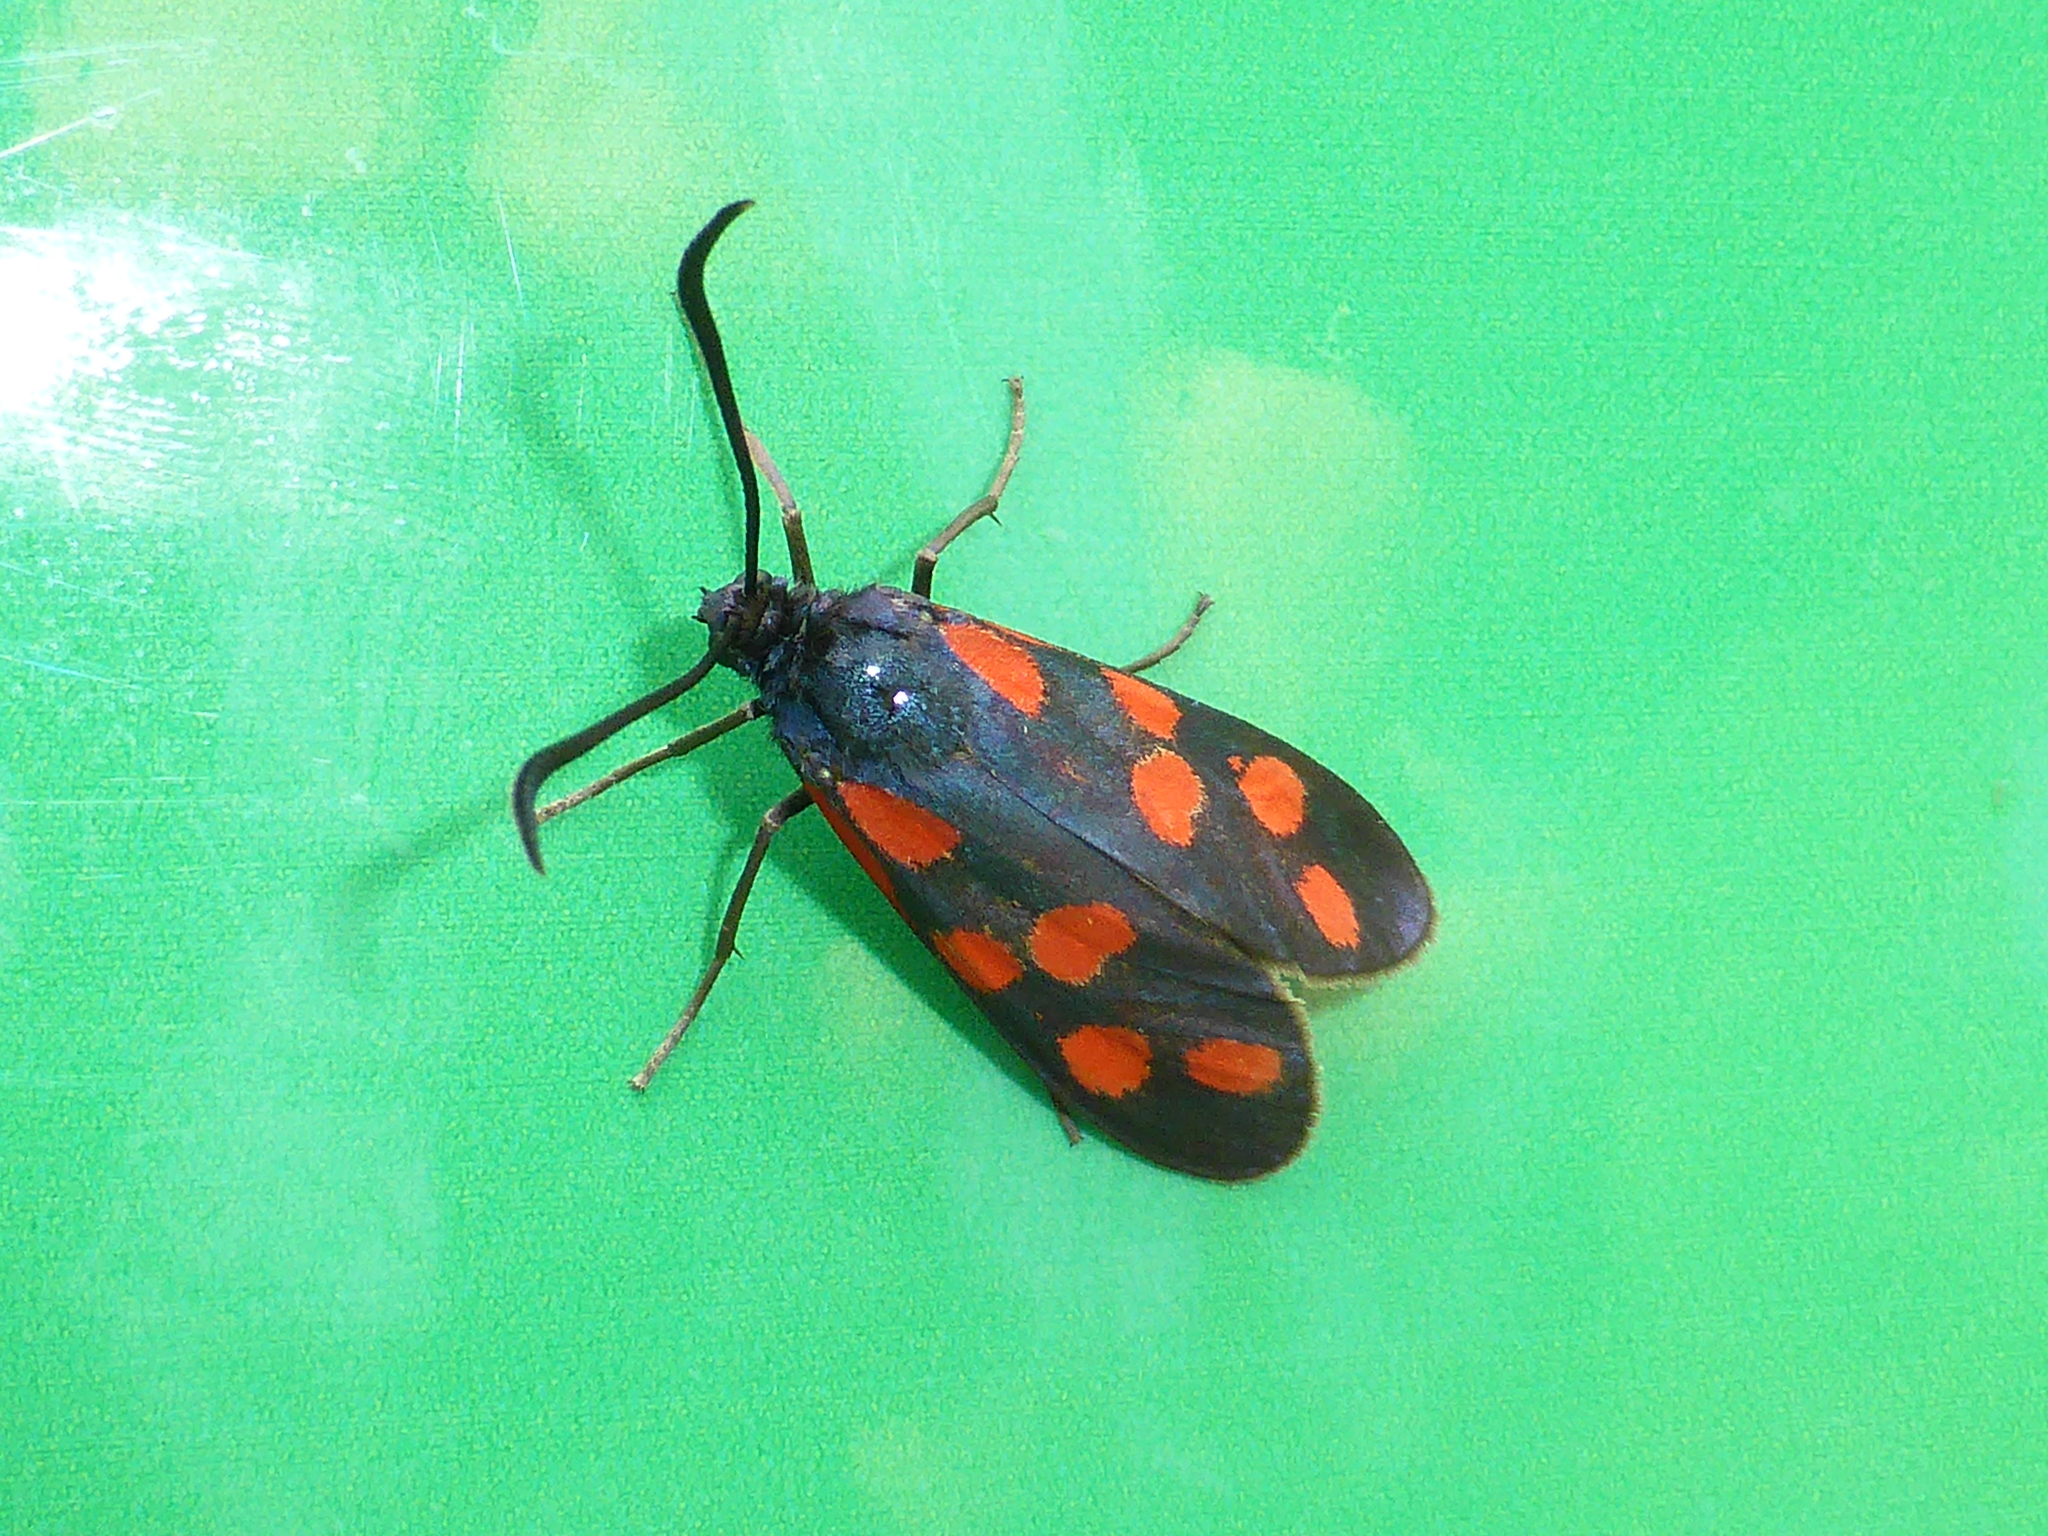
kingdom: Animalia
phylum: Arthropoda
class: Insecta
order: Lepidoptera
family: Zygaenidae
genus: Zygaena
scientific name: Zygaena filipendulae
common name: Six-spot burnet
